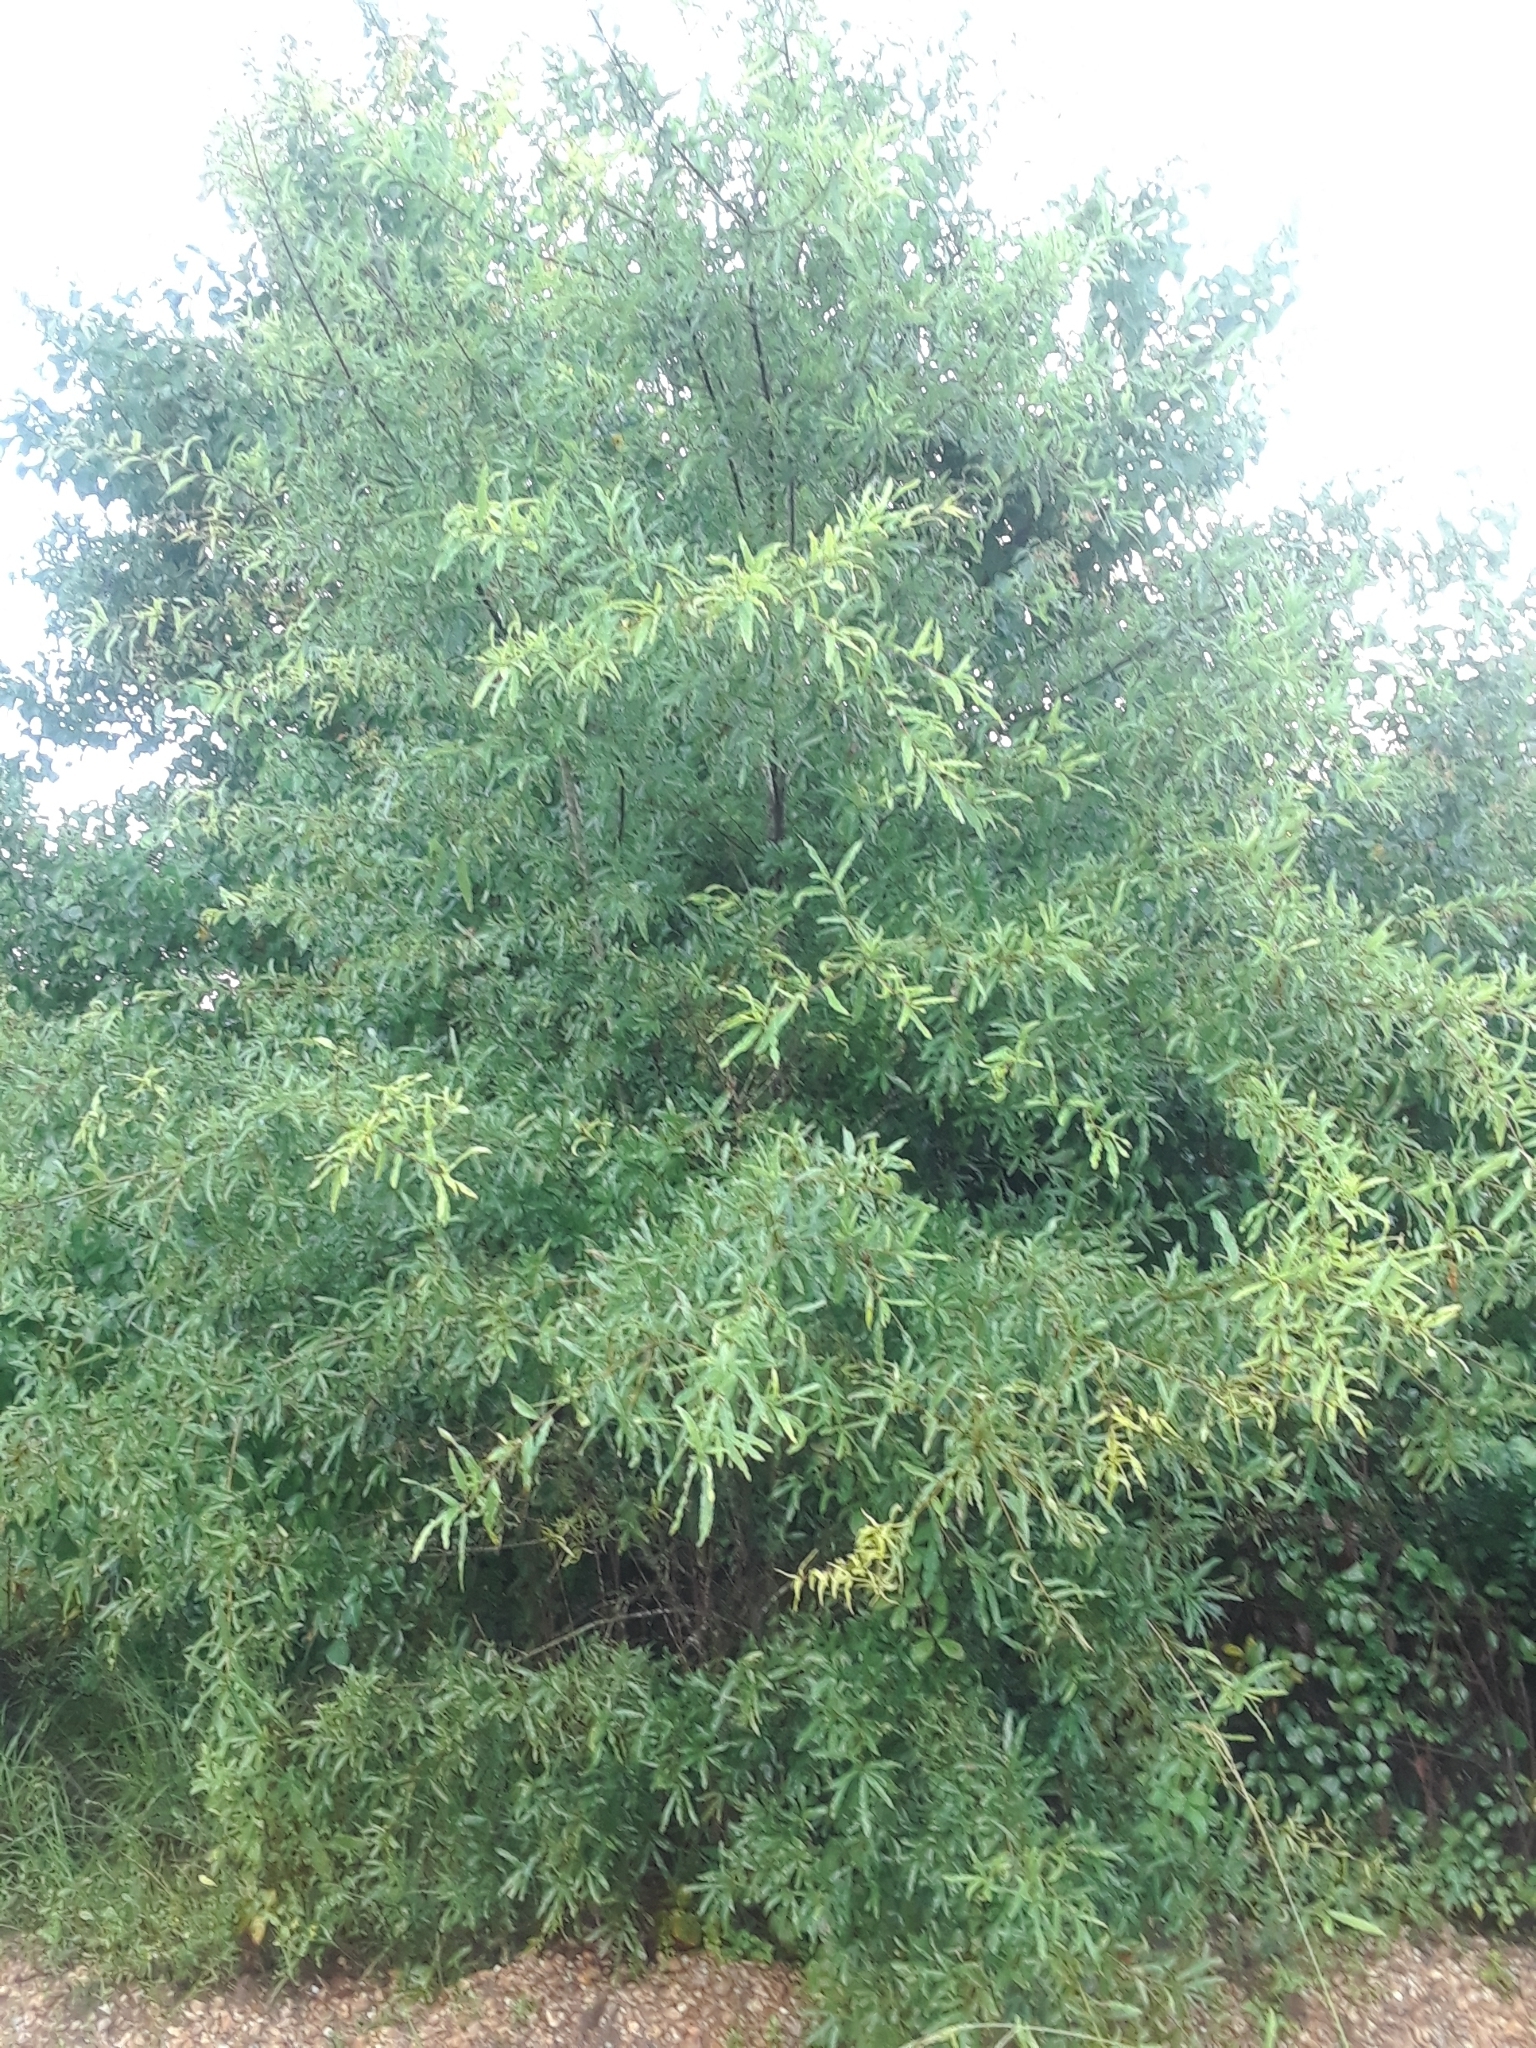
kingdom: Plantae
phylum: Tracheophyta
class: Magnoliopsida
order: Fagales
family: Fagaceae
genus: Quercus
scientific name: Quercus phellos
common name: Willow oak
